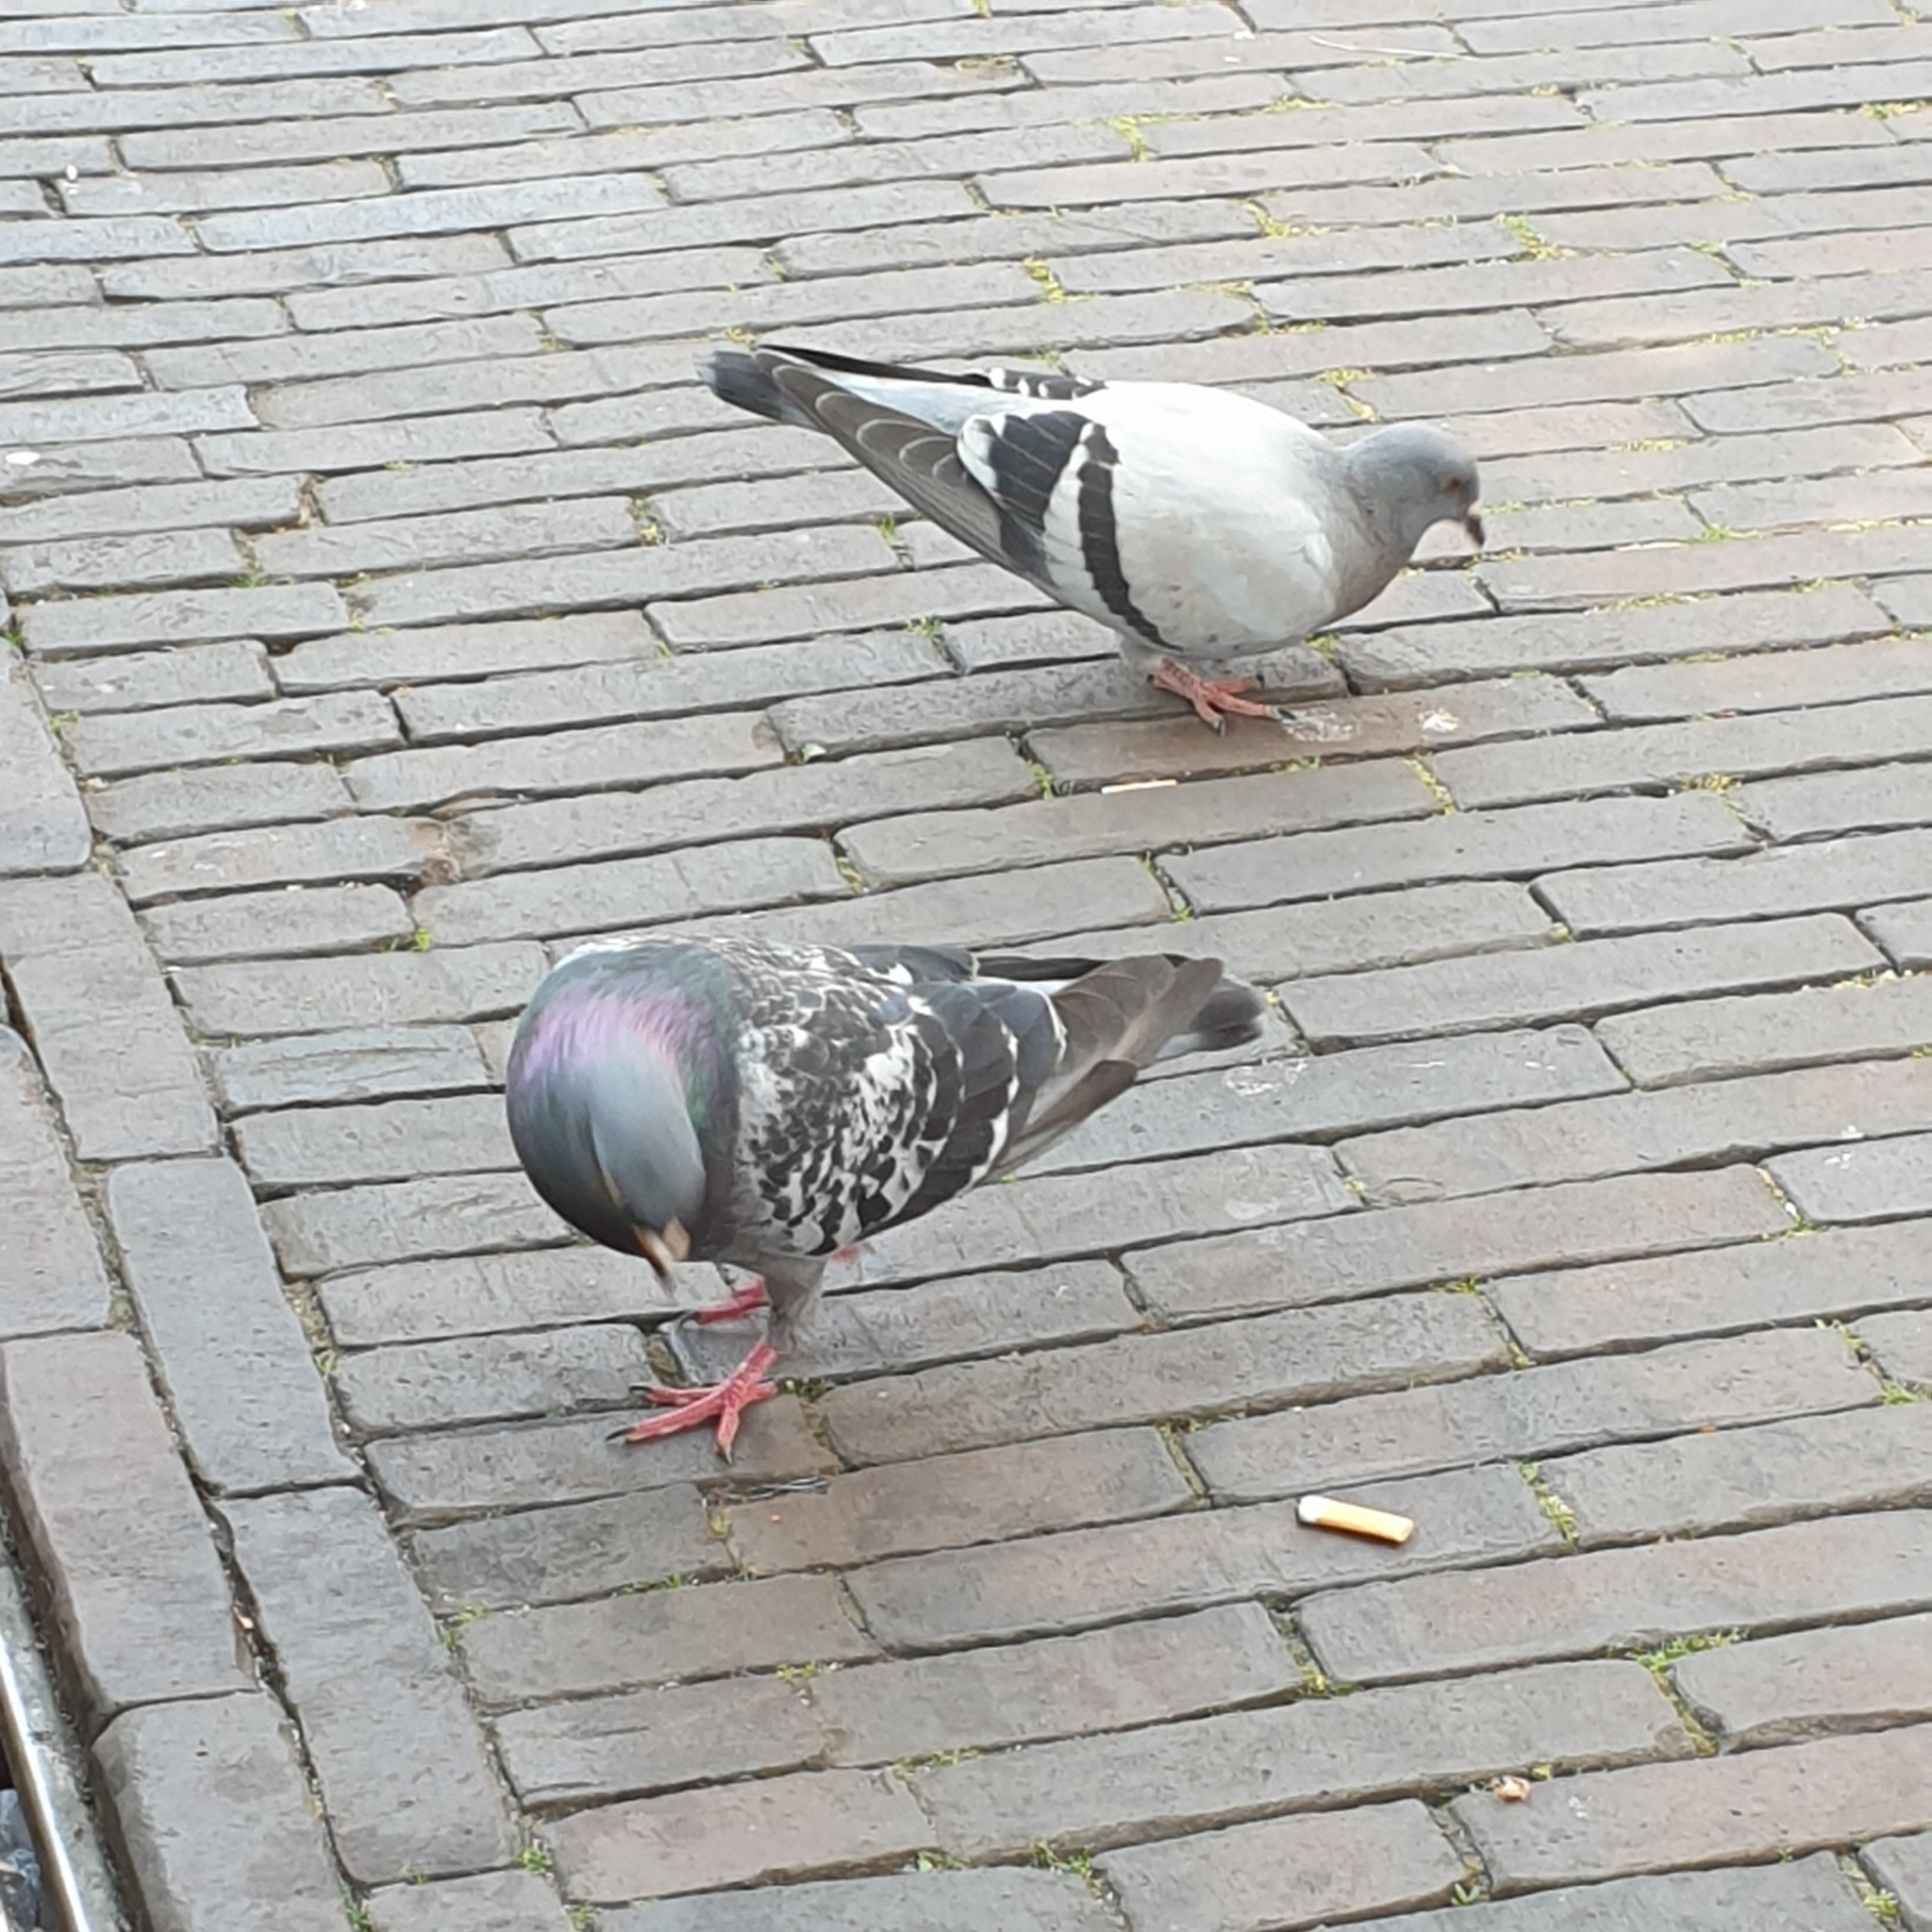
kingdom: Animalia
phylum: Chordata
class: Aves
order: Columbiformes
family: Columbidae
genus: Columba
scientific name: Columba livia
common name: Rock pigeon
